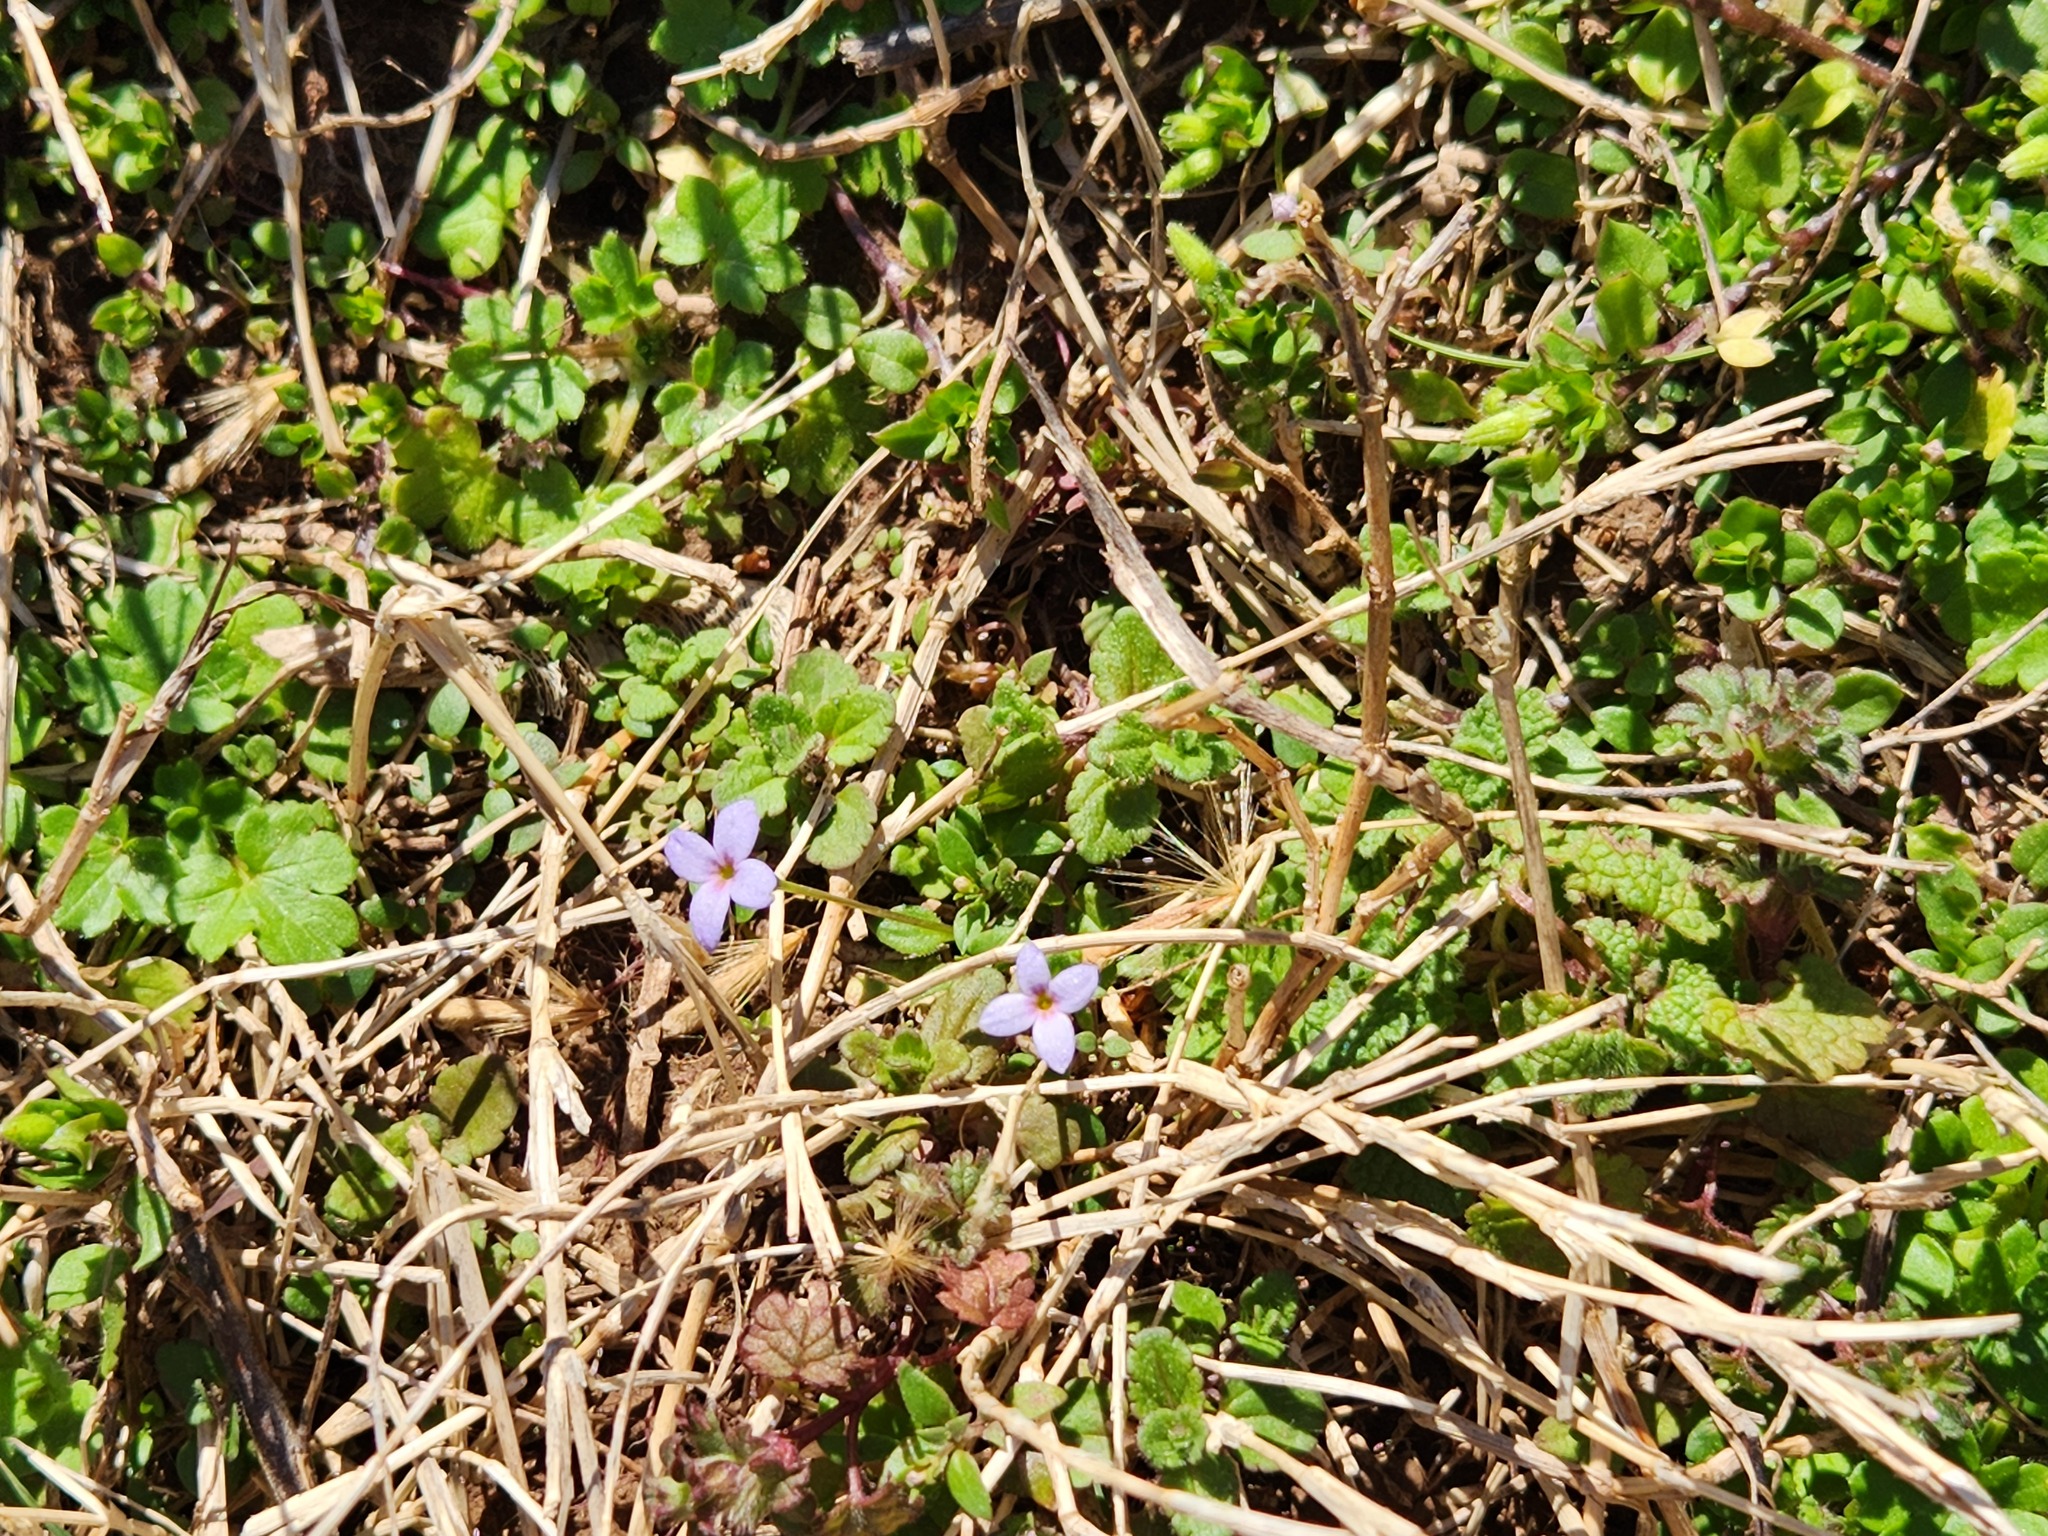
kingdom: Plantae
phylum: Tracheophyta
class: Magnoliopsida
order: Gentianales
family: Rubiaceae
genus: Houstonia
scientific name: Houstonia pusilla
